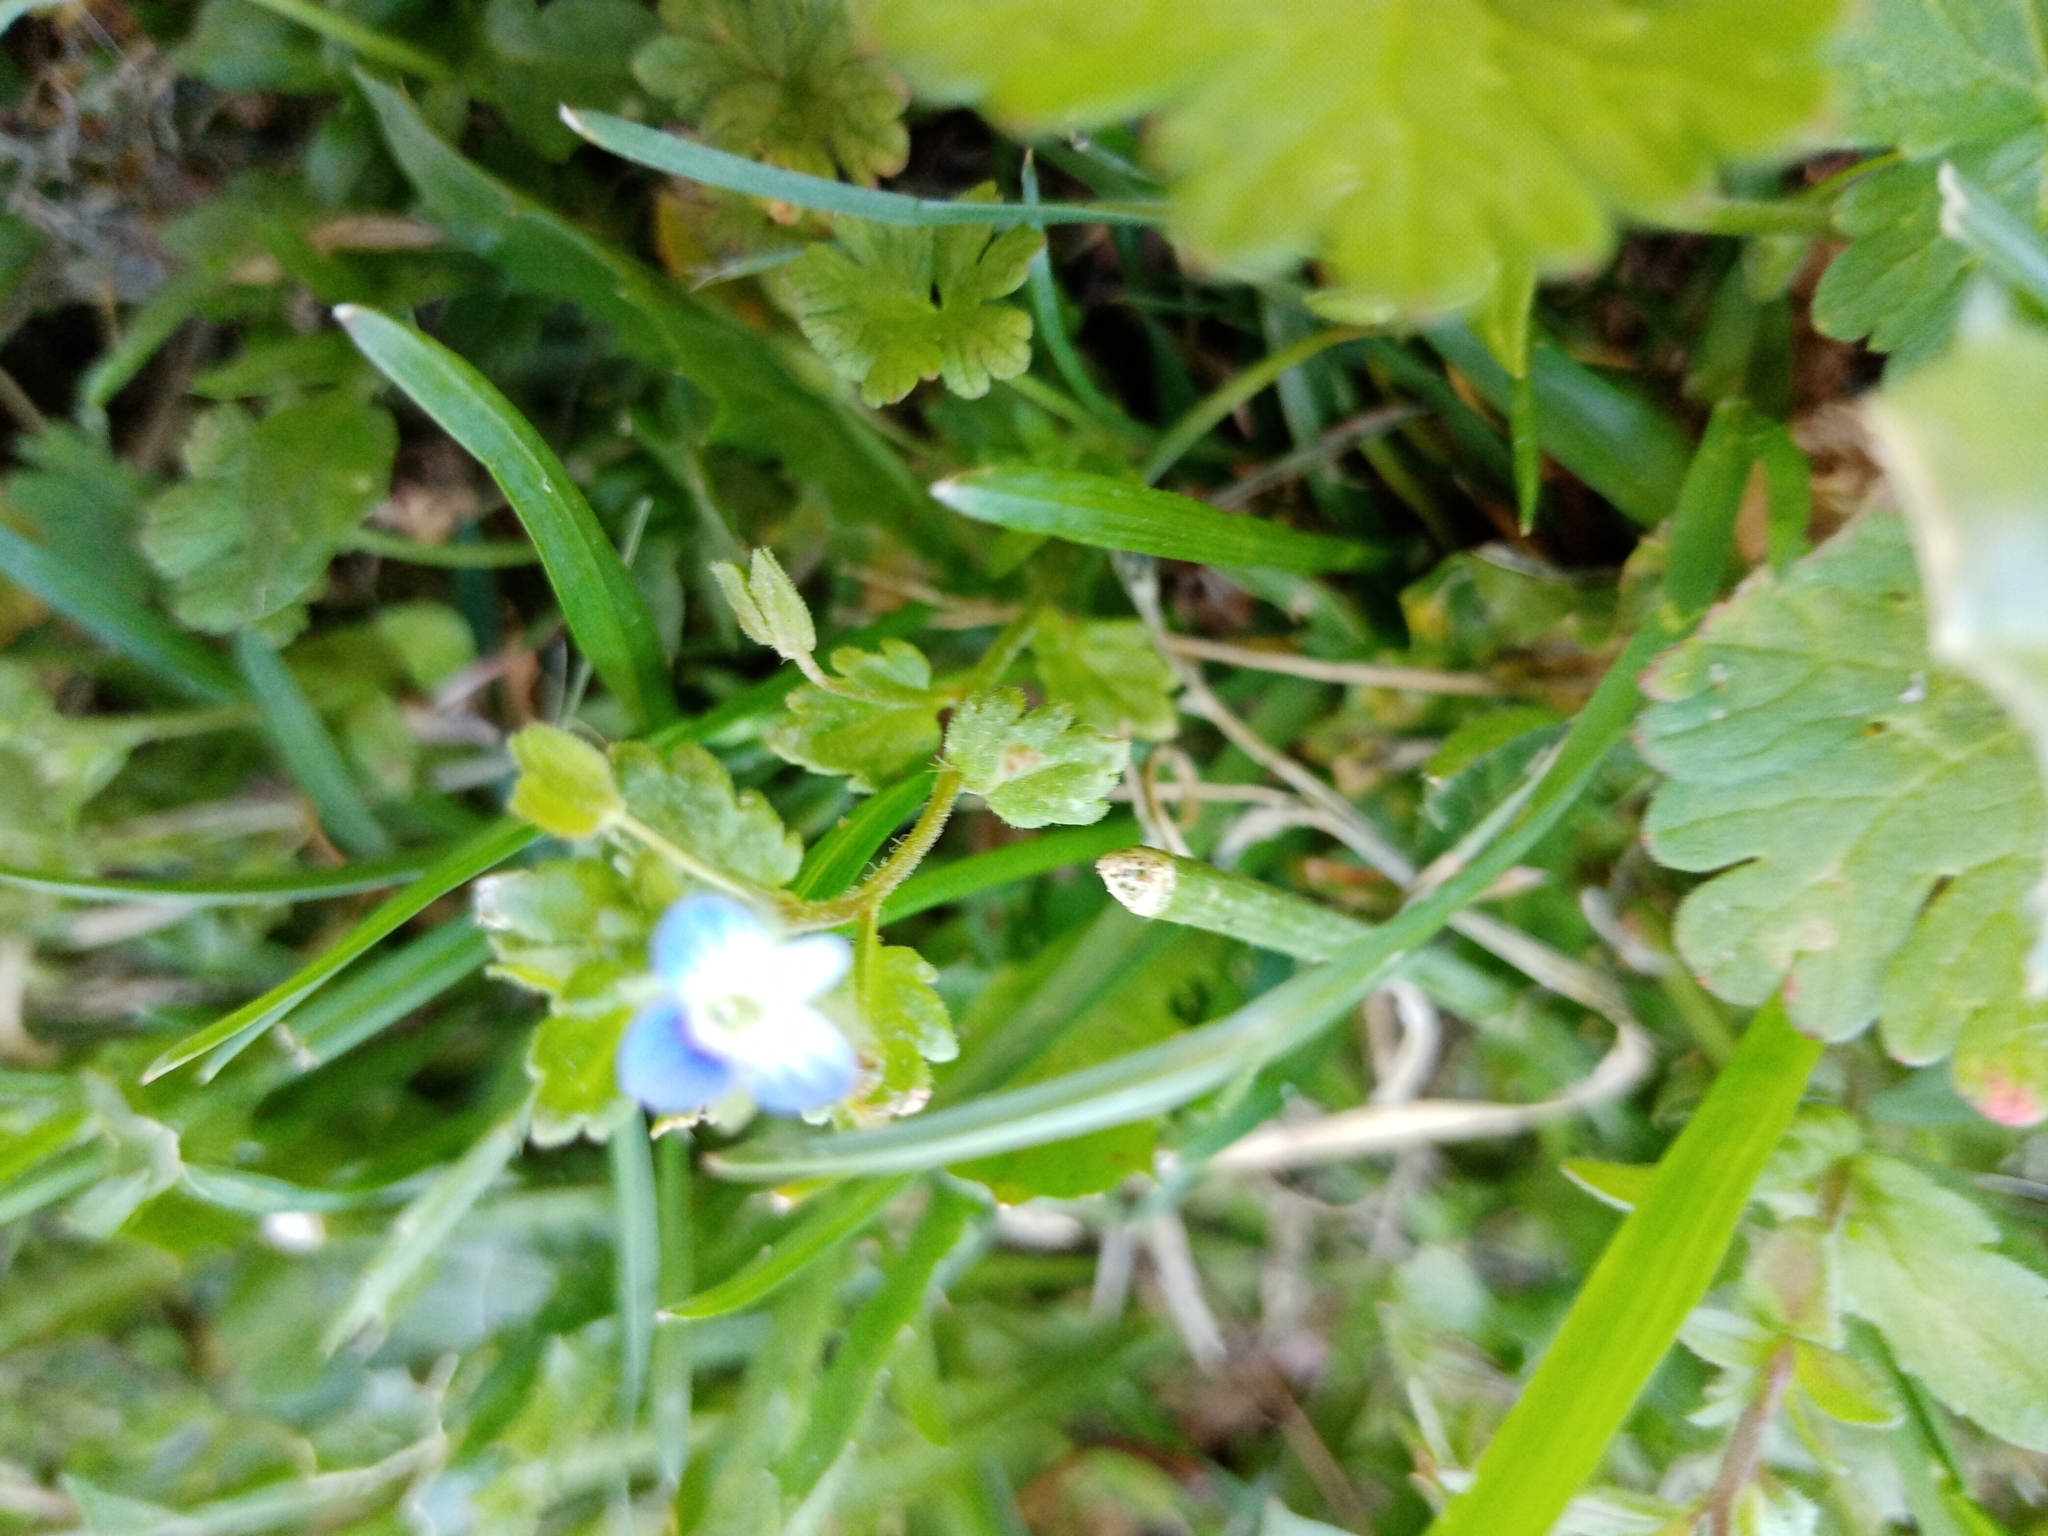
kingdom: Plantae
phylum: Tracheophyta
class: Magnoliopsida
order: Lamiales
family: Plantaginaceae
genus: Veronica
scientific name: Veronica persica
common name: Common field-speedwell
